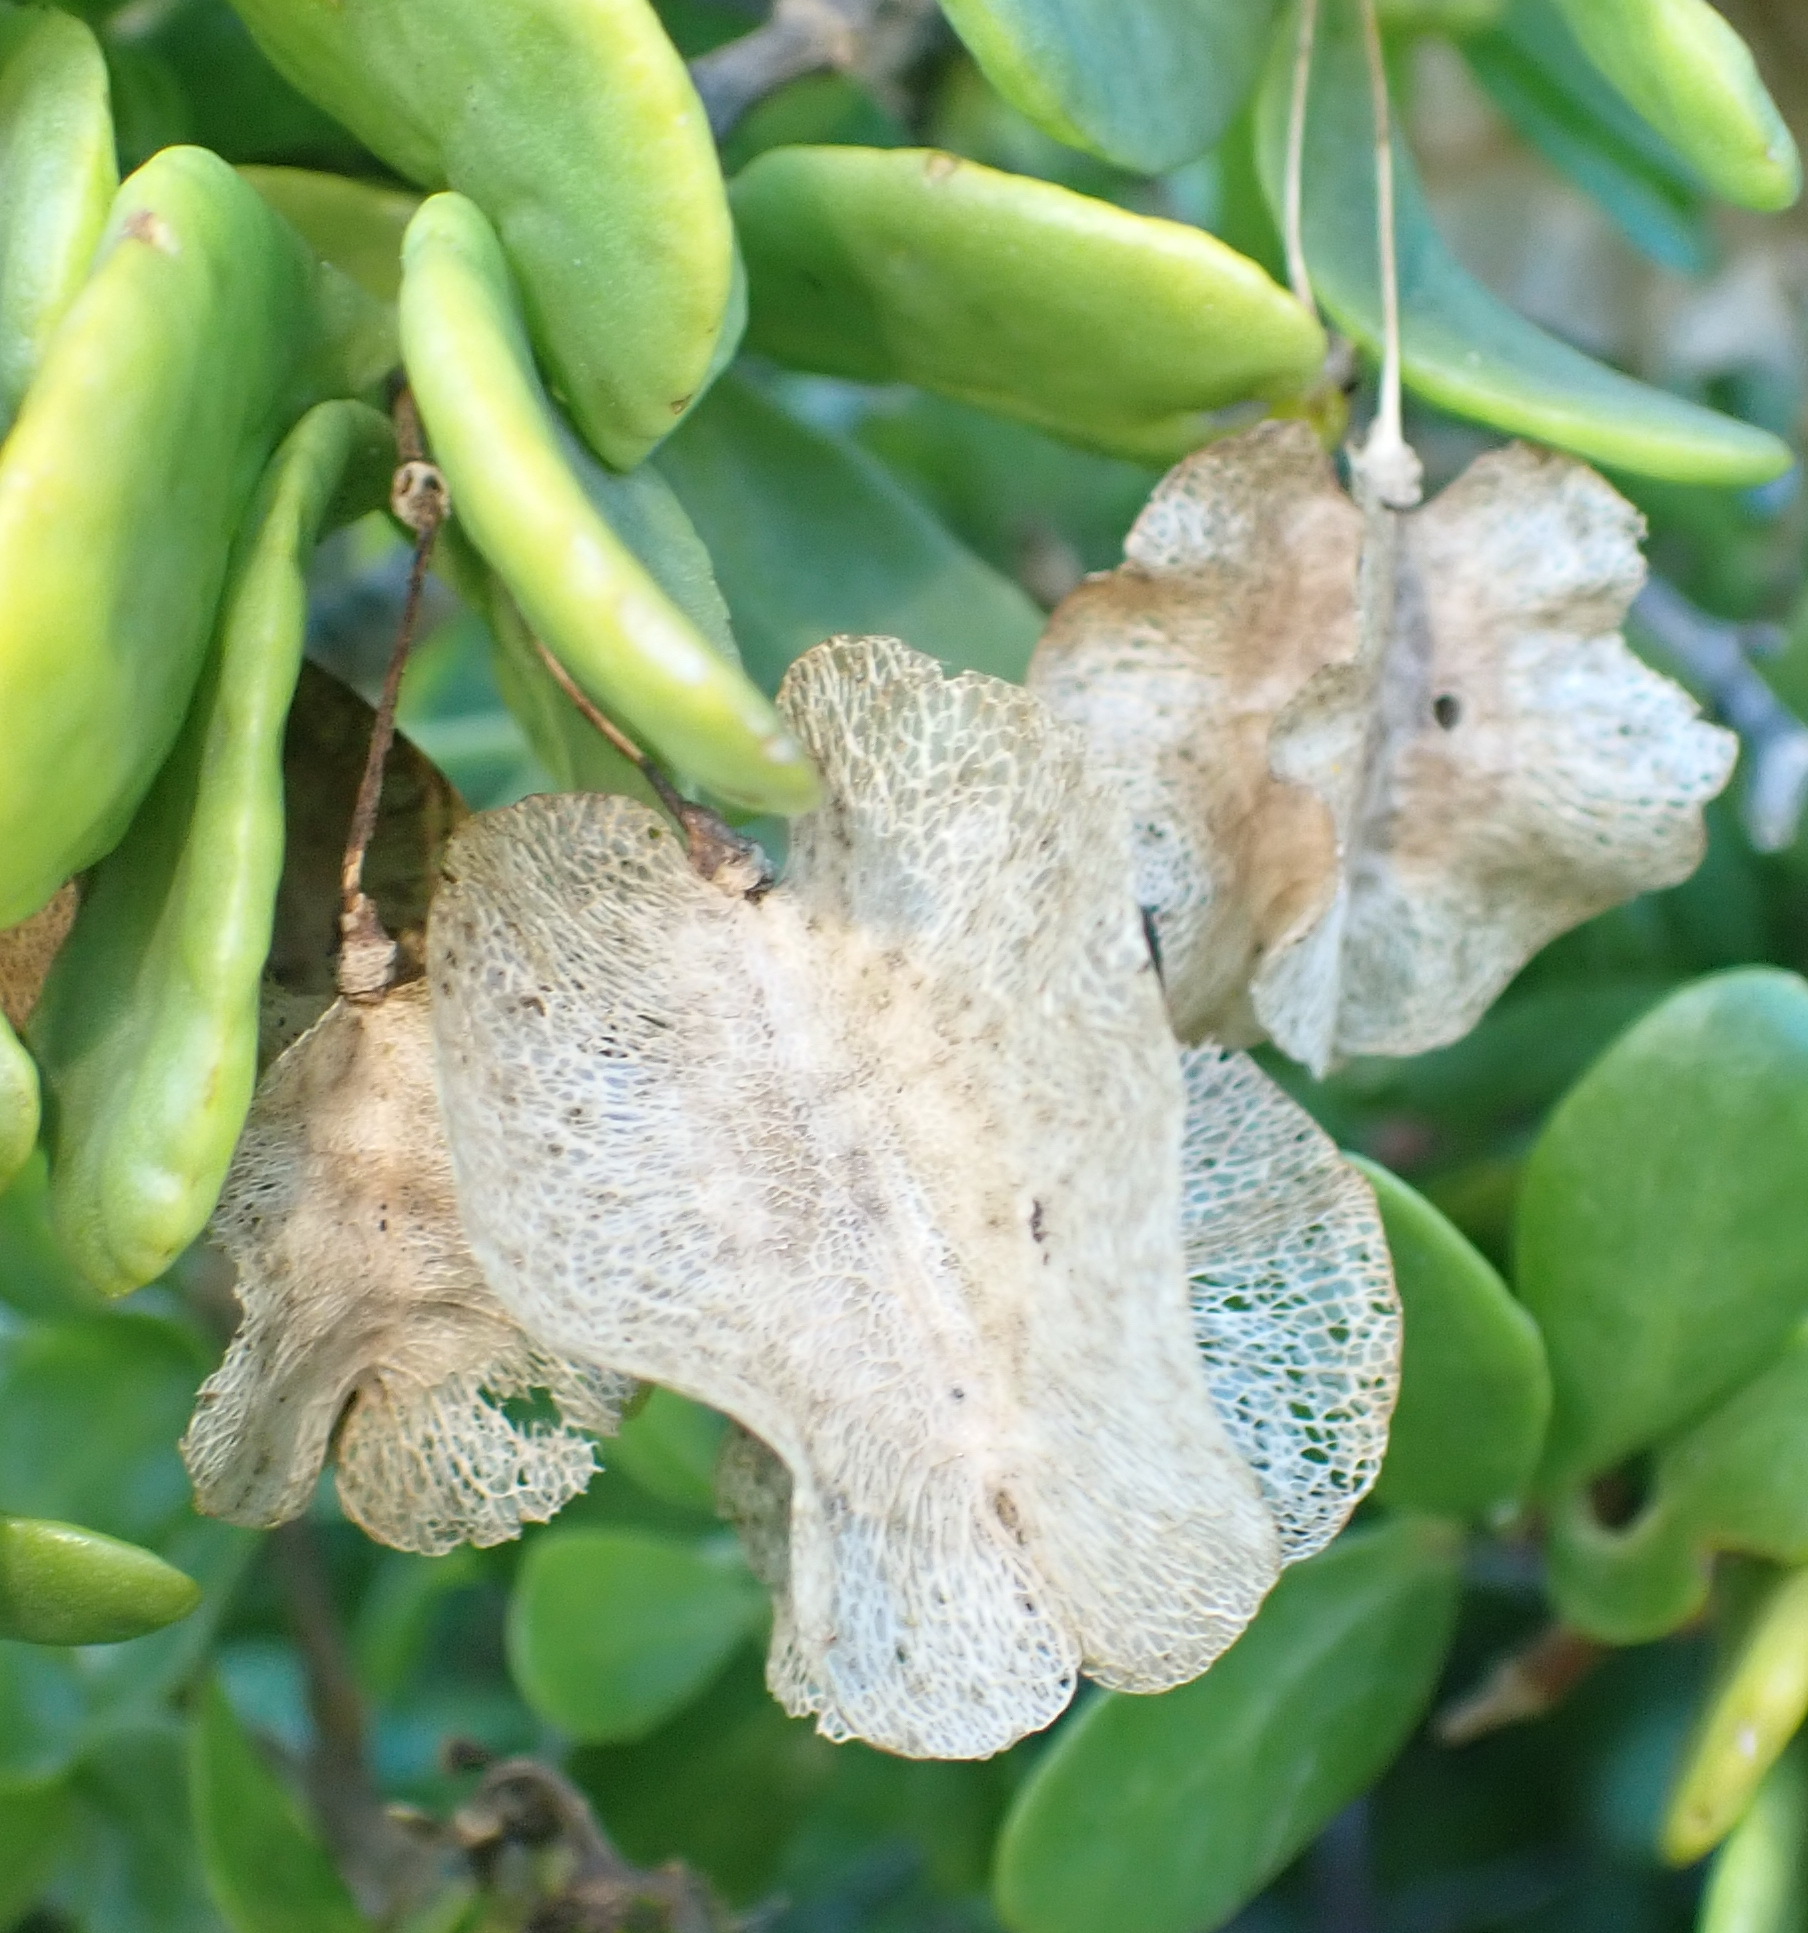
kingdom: Plantae
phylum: Tracheophyta
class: Magnoliopsida
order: Zygophyllales
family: Zygophyllaceae
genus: Roepera
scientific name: Roepera morgsana
